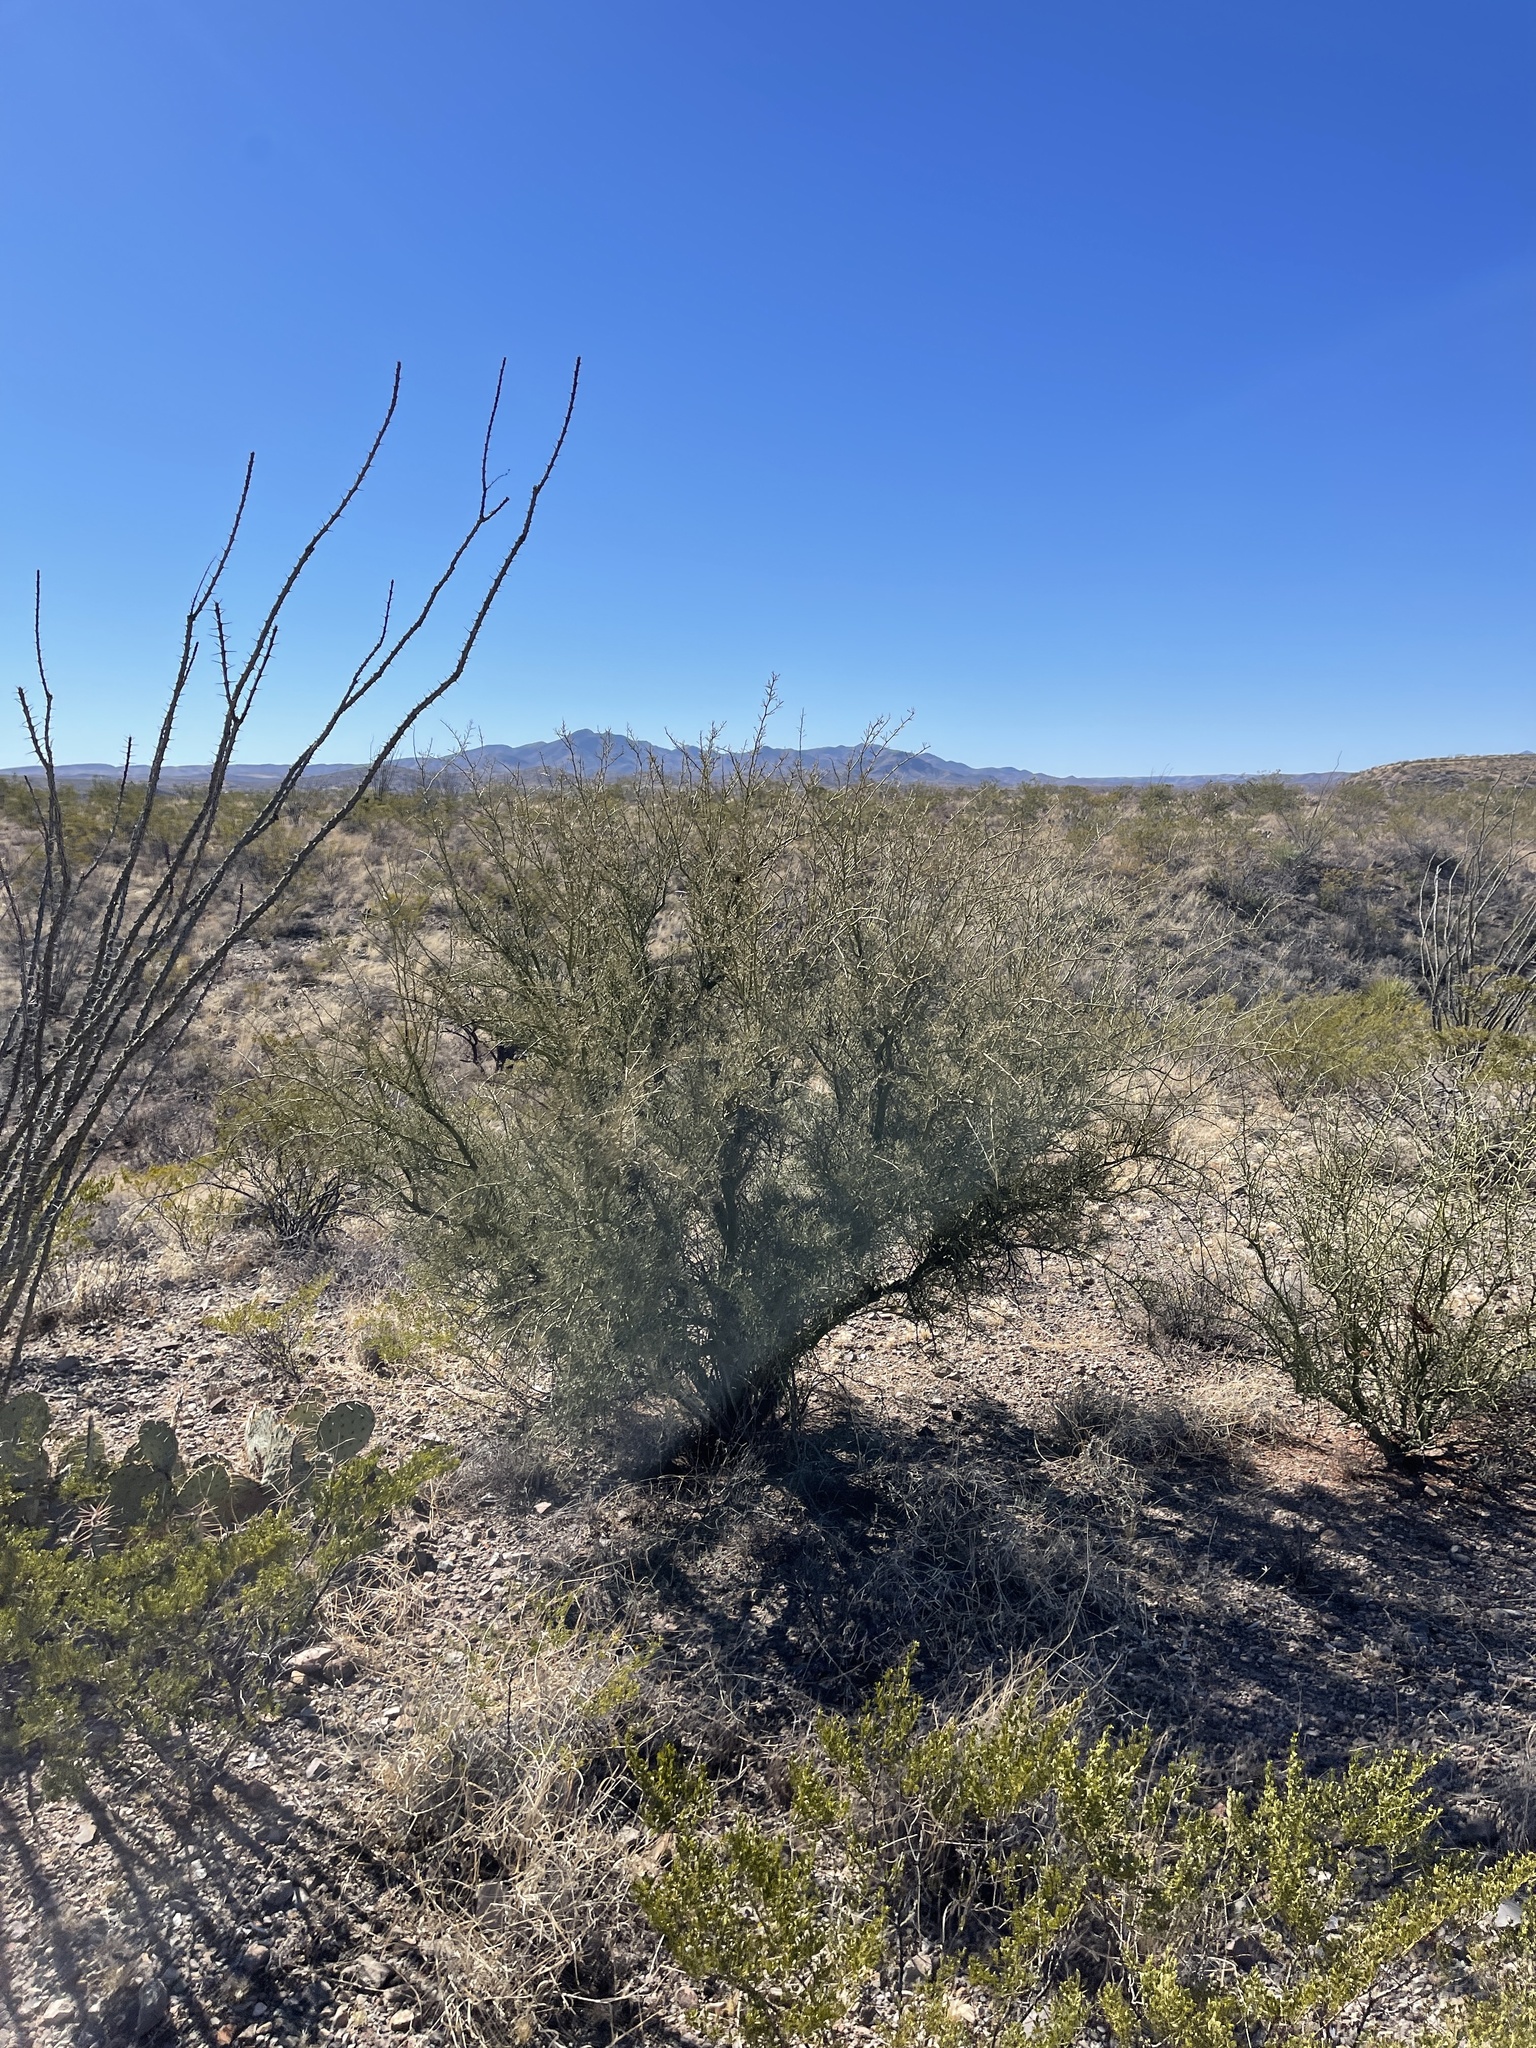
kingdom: Plantae
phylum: Tracheophyta
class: Magnoliopsida
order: Fabales
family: Fabaceae
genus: Parkinsonia
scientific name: Parkinsonia microphylla
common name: Yellow paloverde
